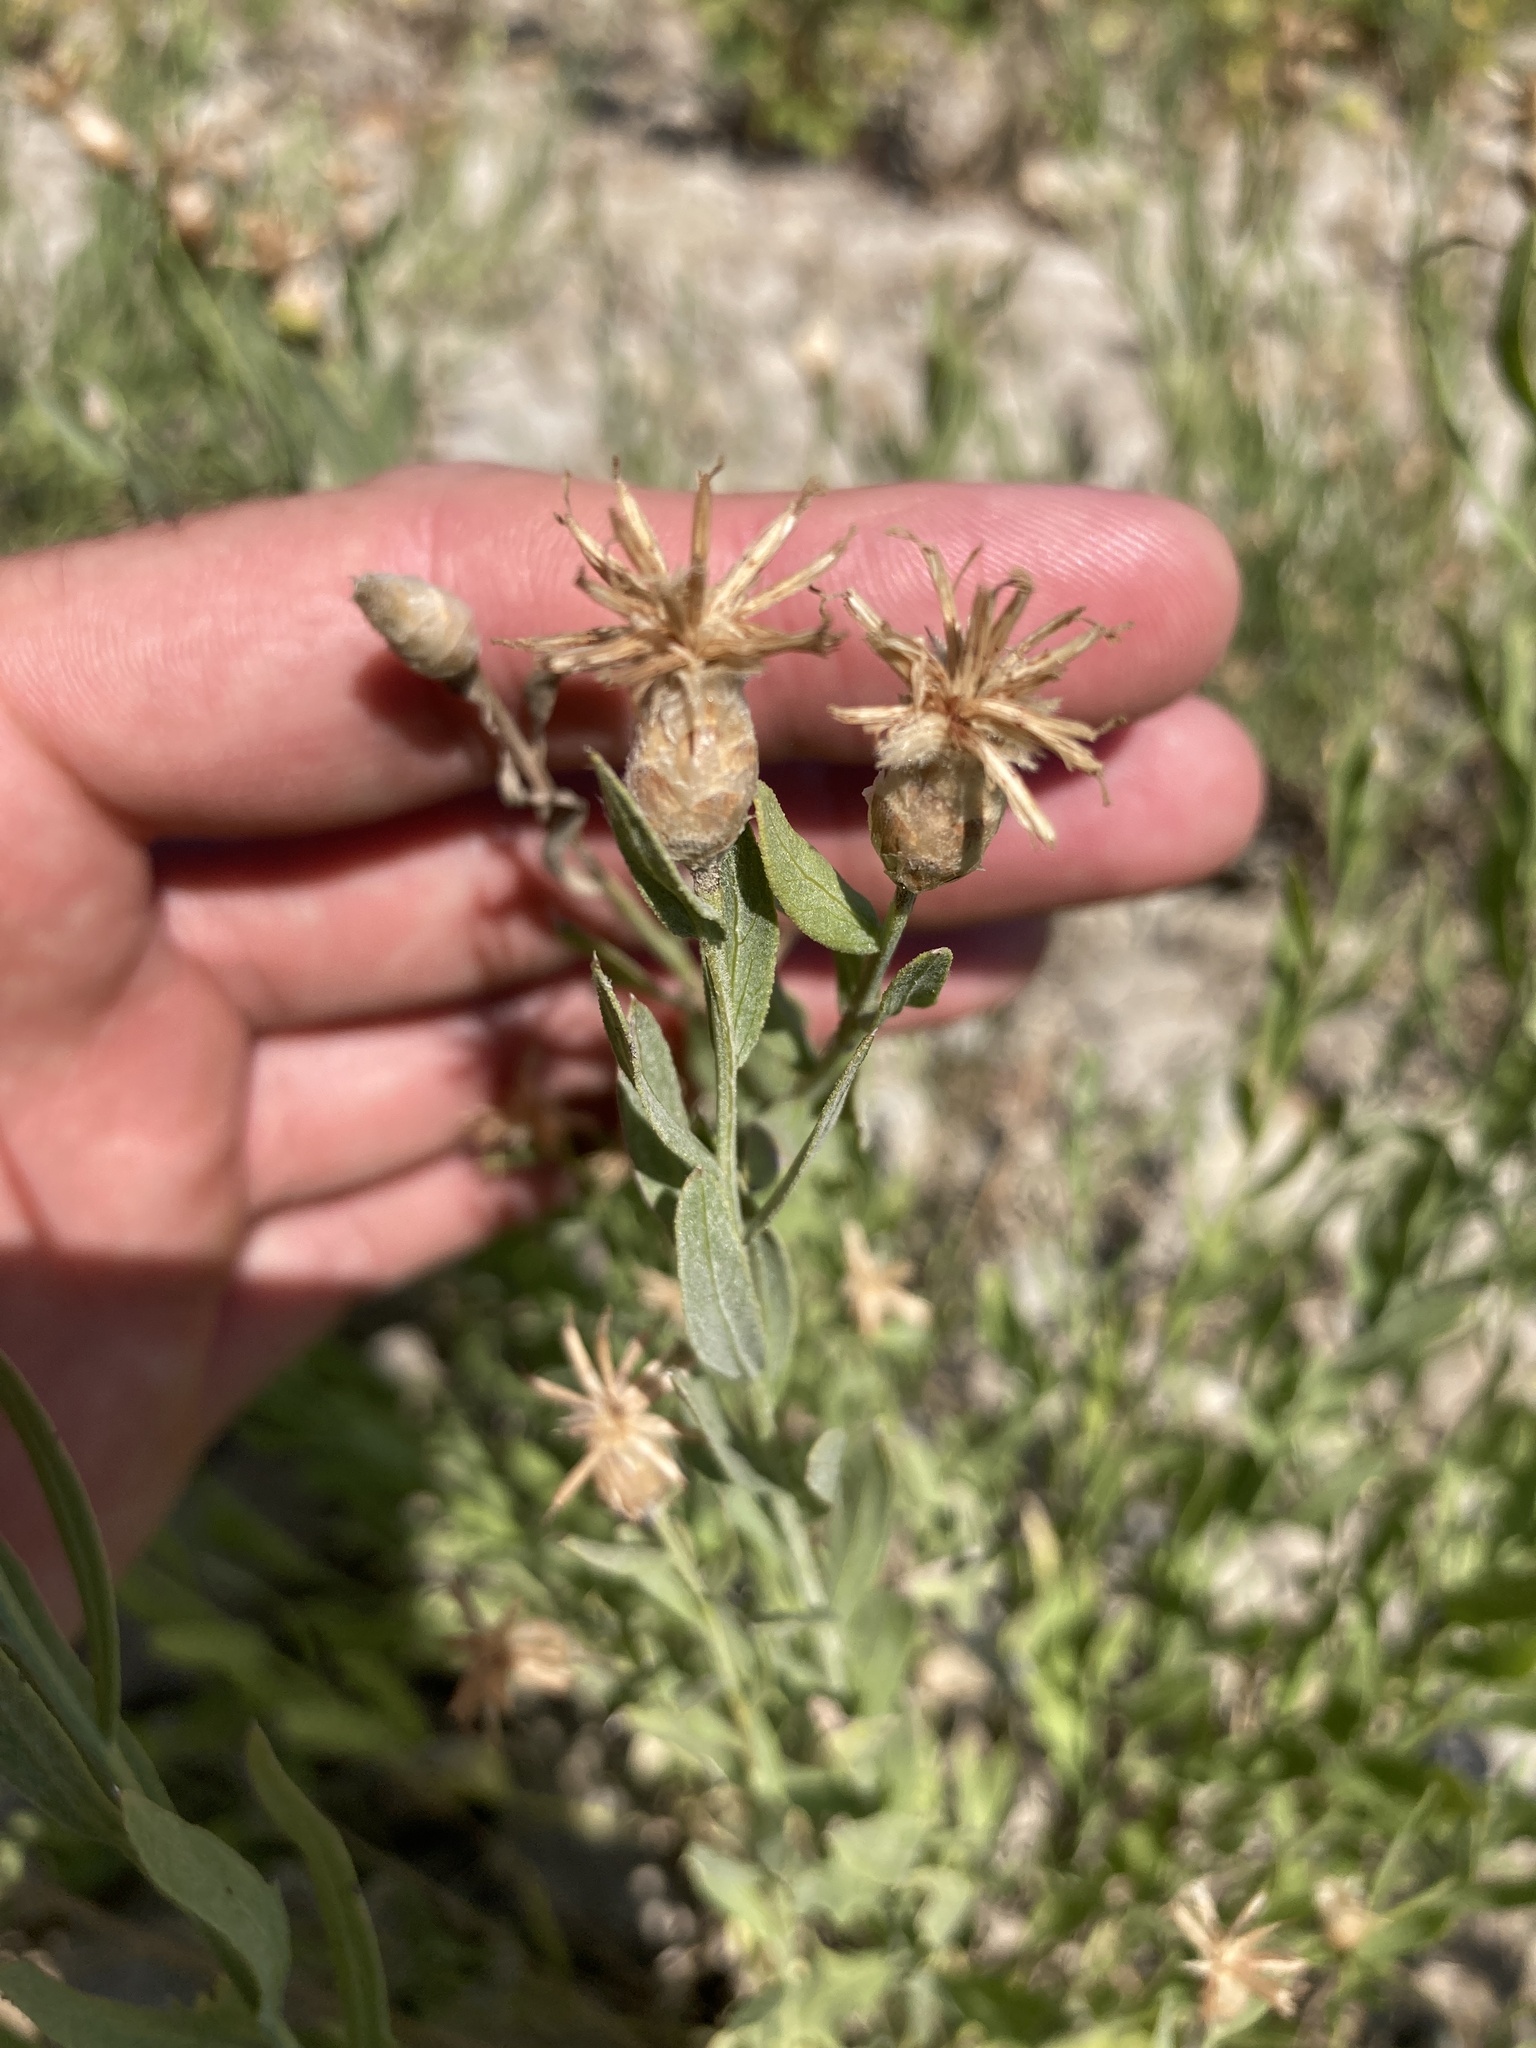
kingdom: Plantae
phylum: Tracheophyta
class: Magnoliopsida
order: Asterales
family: Asteraceae
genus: Leuzea
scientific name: Leuzea repens
